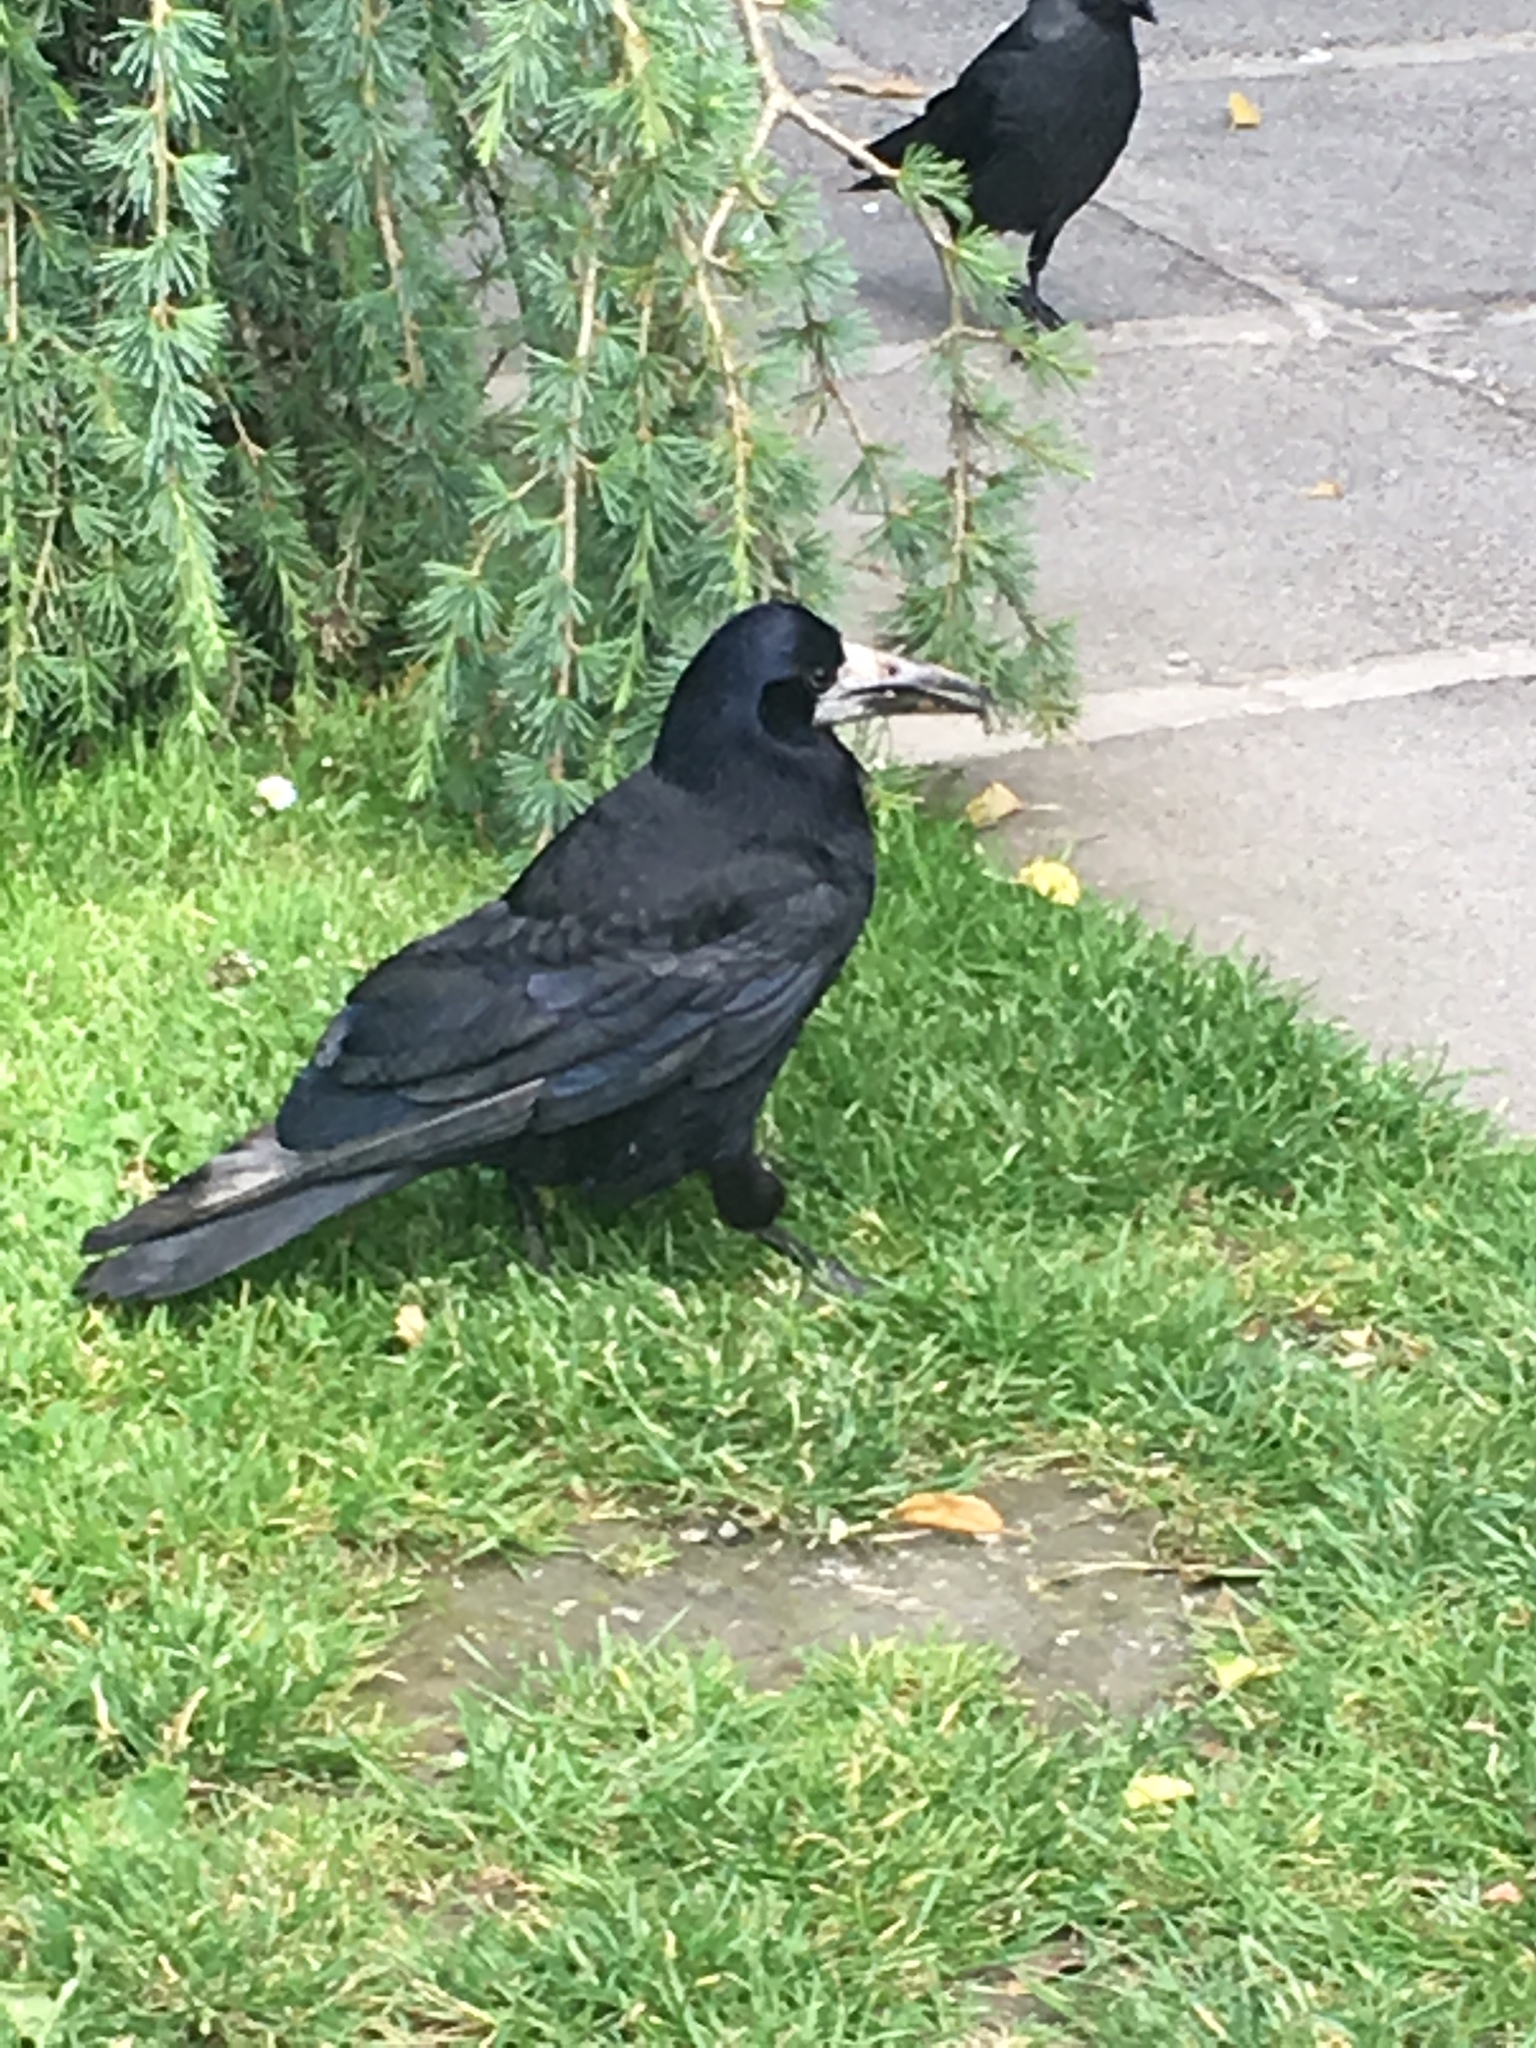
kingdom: Animalia
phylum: Chordata
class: Aves
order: Passeriformes
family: Corvidae
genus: Corvus
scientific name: Corvus frugilegus
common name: Rook
